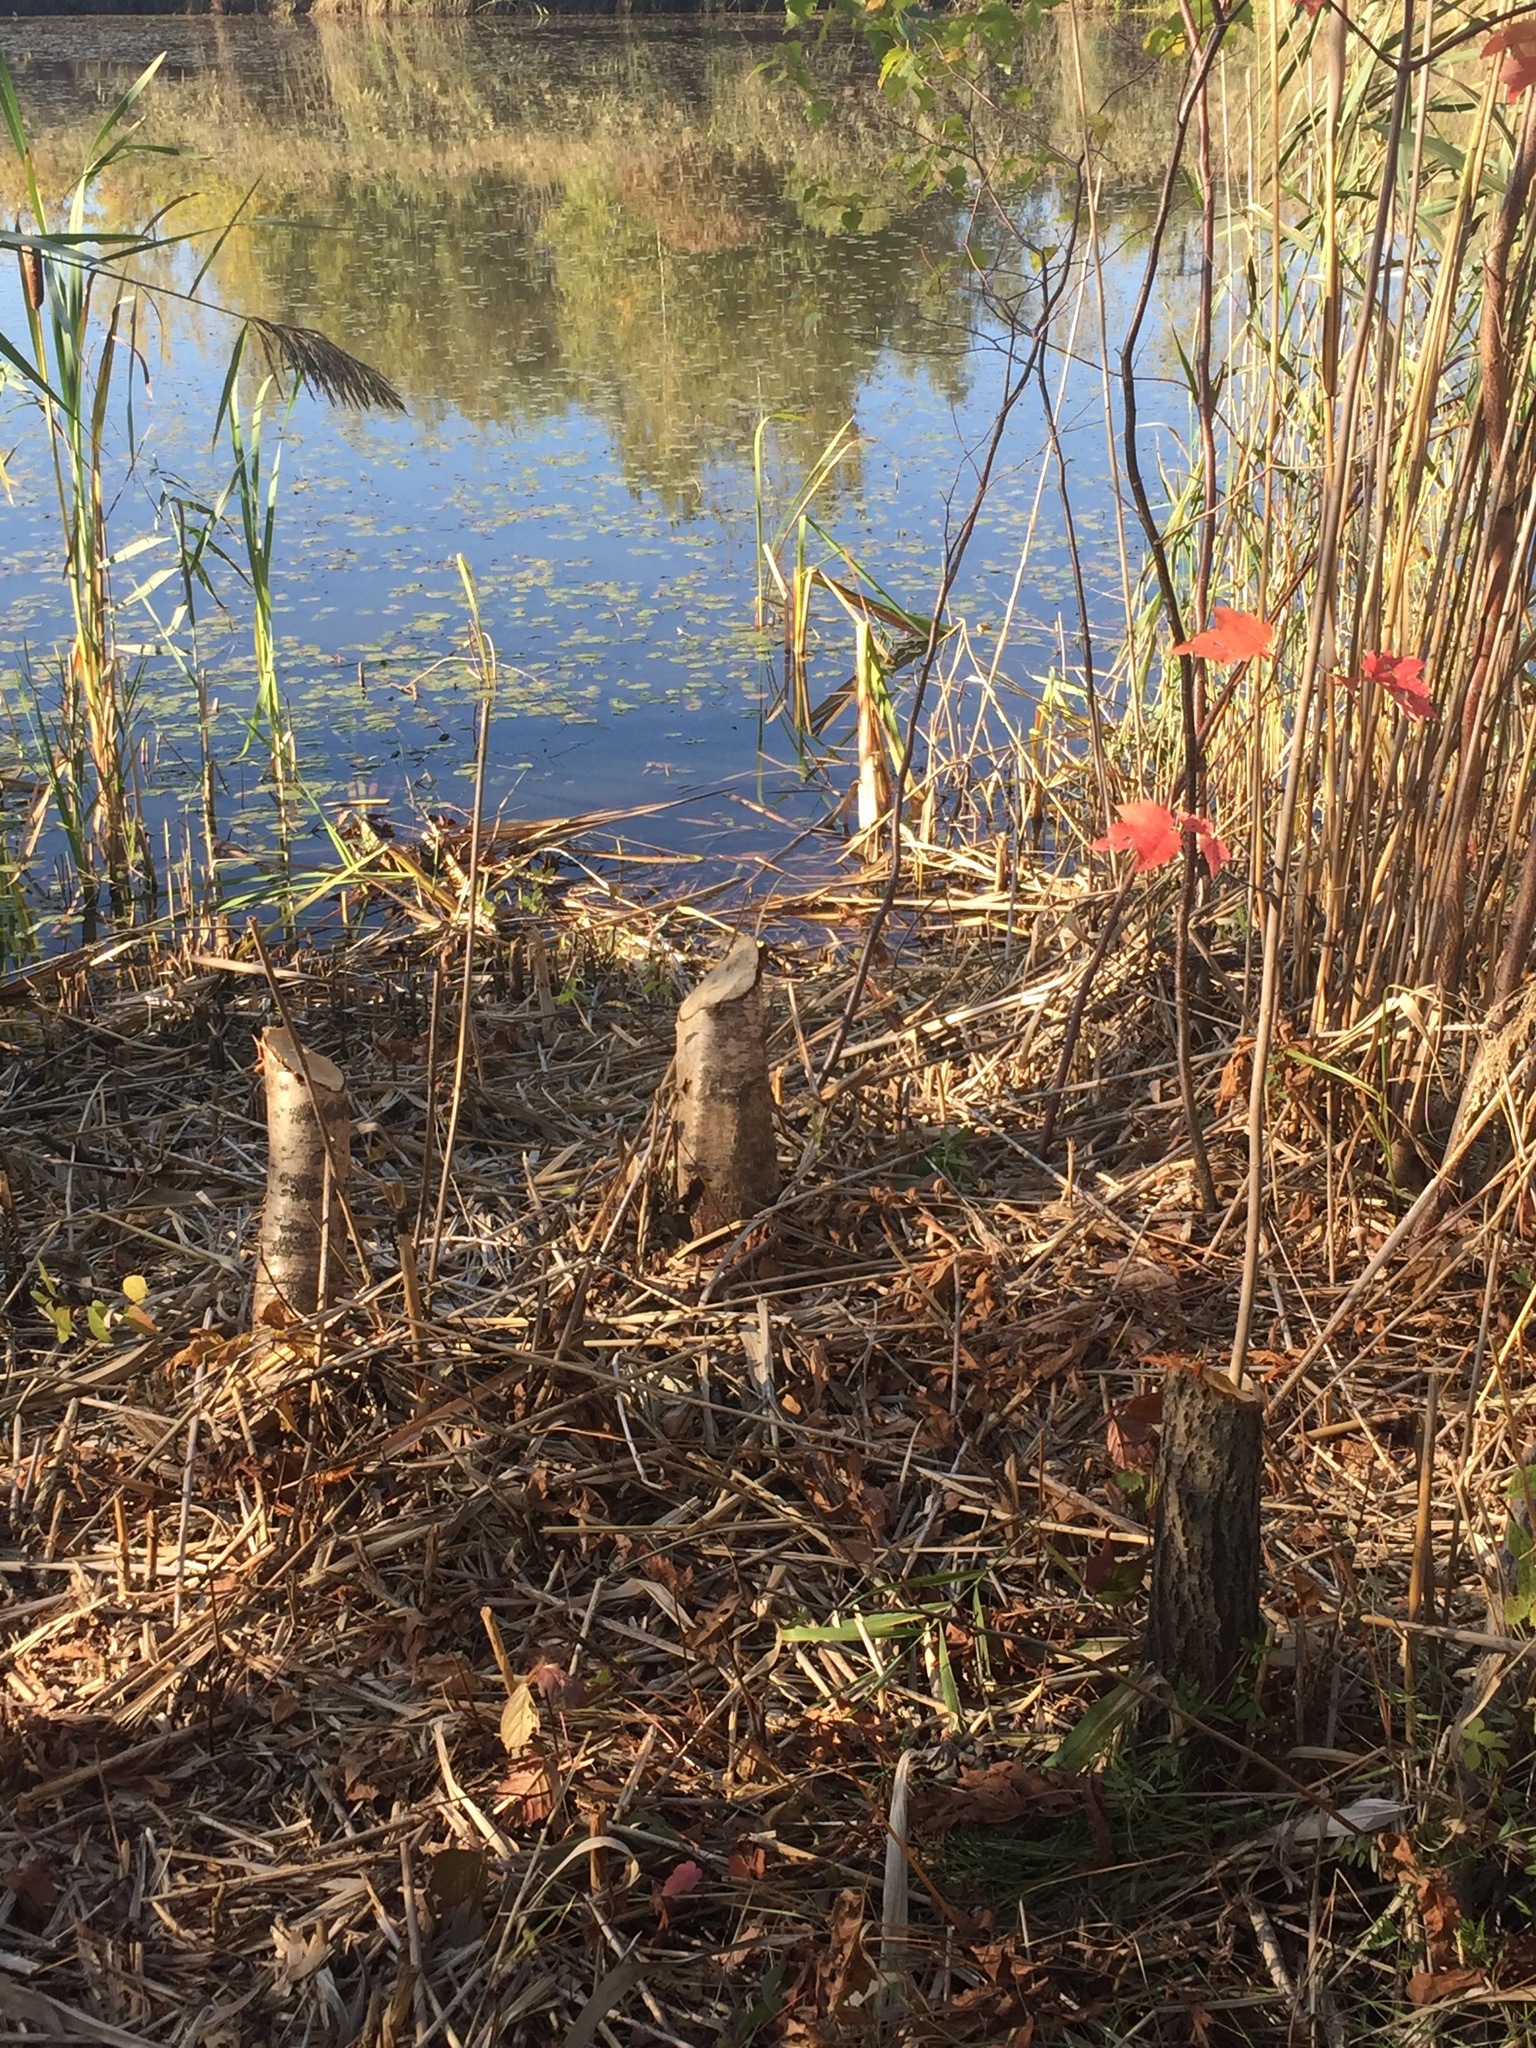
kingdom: Animalia
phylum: Chordata
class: Mammalia
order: Rodentia
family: Castoridae
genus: Castor
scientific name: Castor canadensis
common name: American beaver
